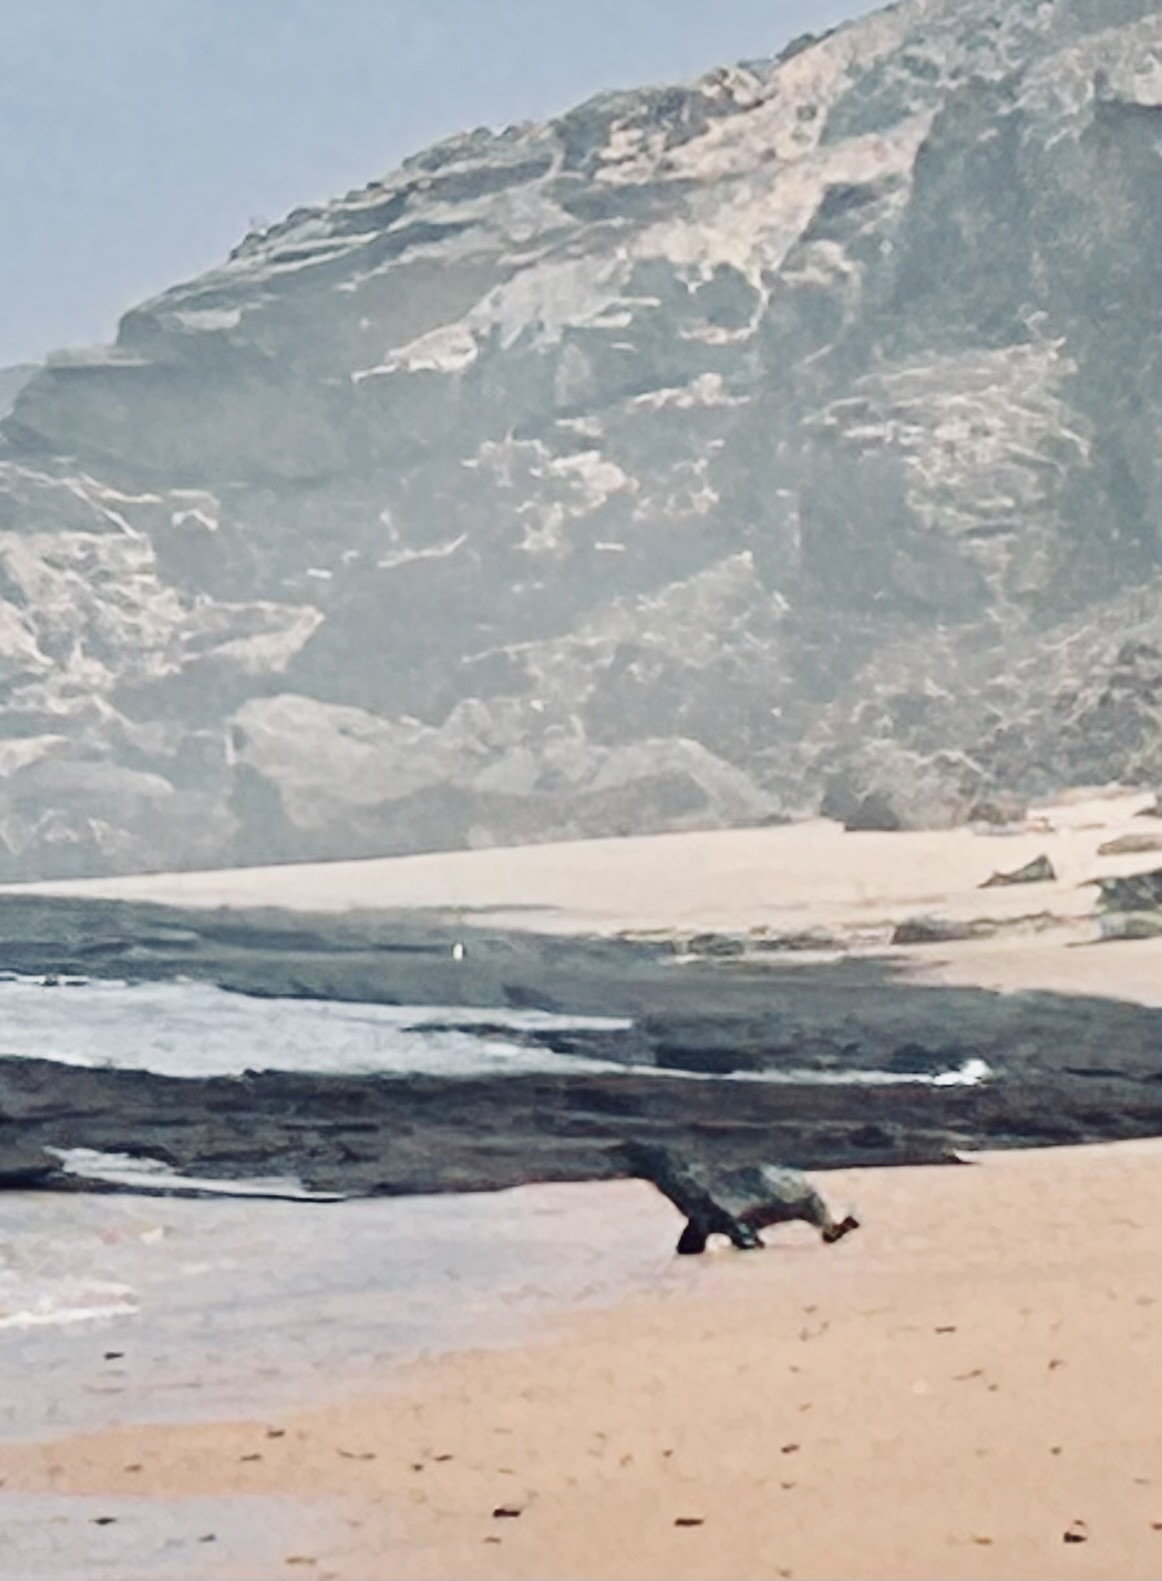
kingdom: Animalia
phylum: Chordata
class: Mammalia
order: Carnivora
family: Otariidae
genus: Arctocephalus
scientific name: Arctocephalus pusillus
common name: Brown fur seal
